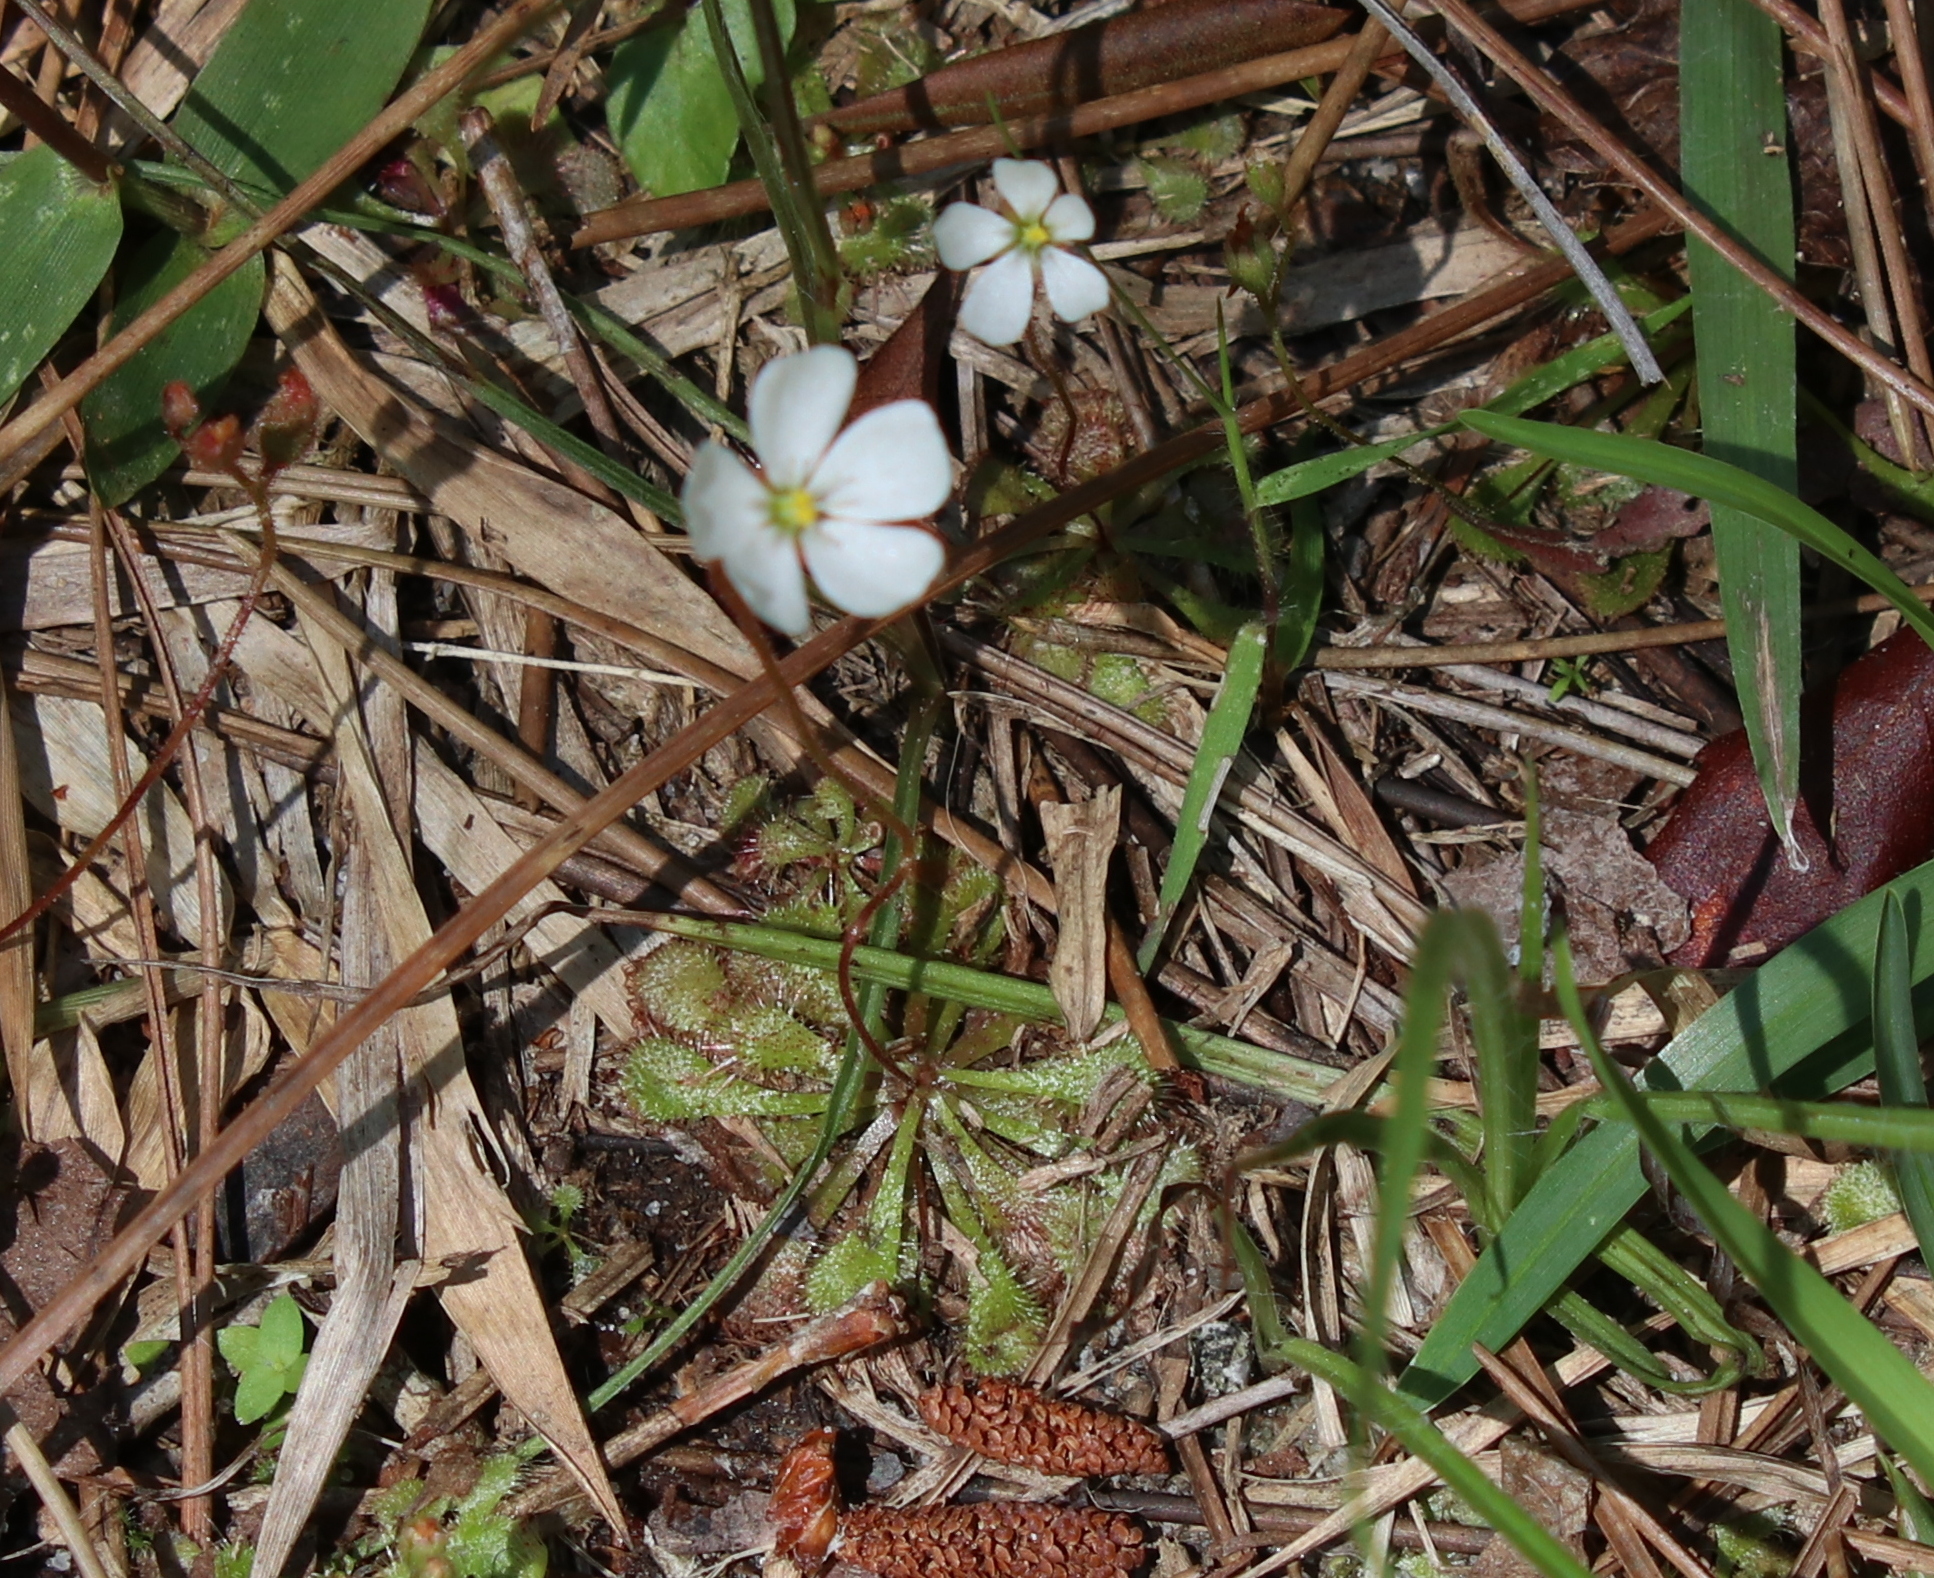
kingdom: Plantae
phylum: Tracheophyta
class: Magnoliopsida
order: Caryophyllales
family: Droseraceae
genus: Drosera
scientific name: Drosera brevifolia
